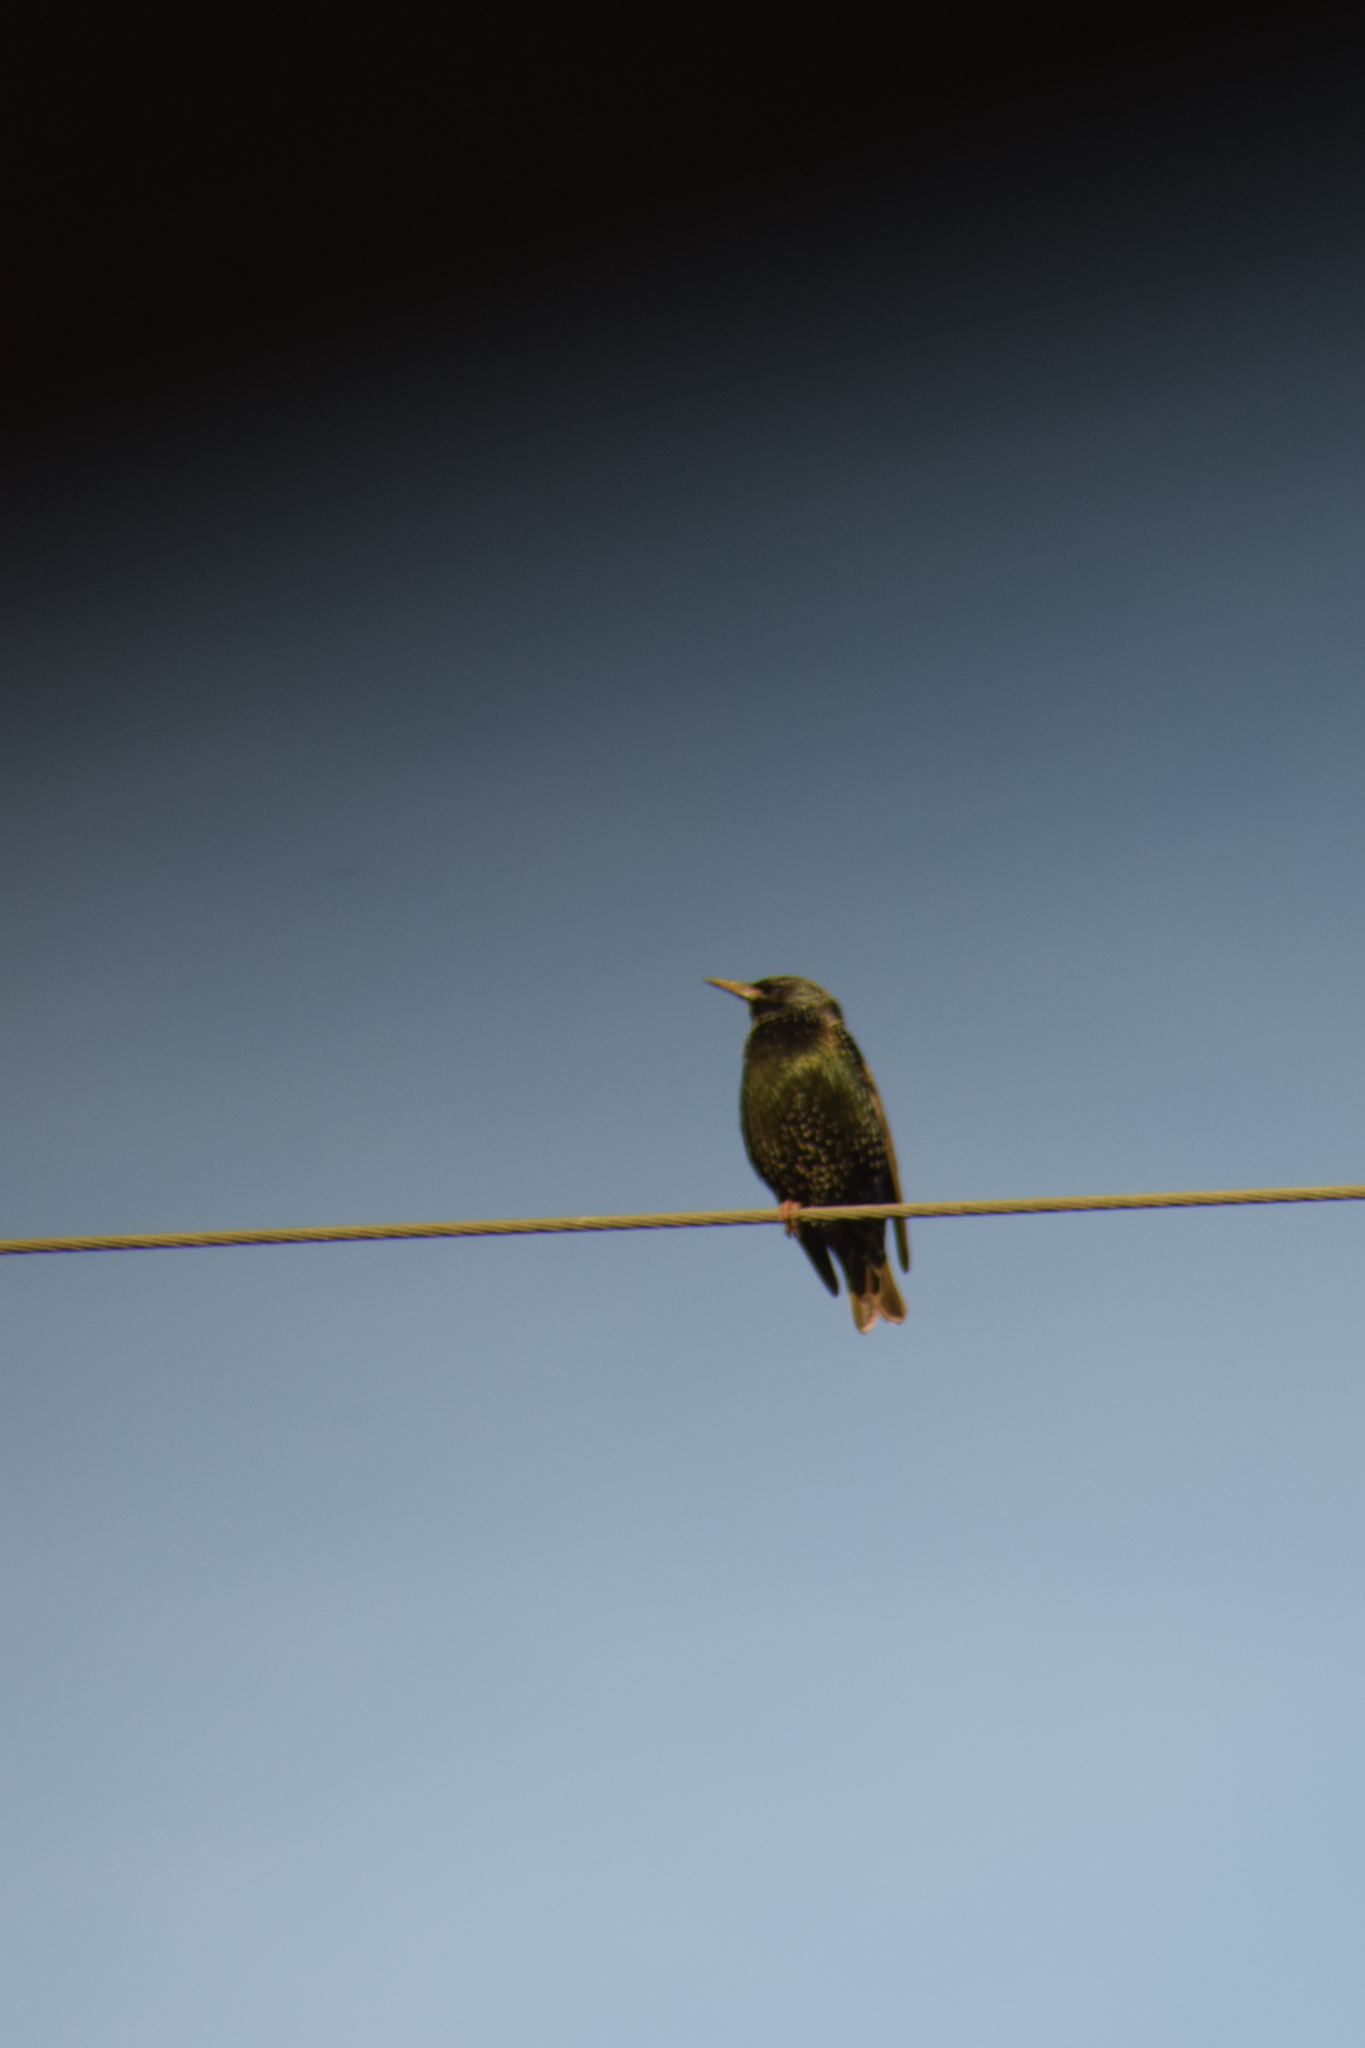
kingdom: Animalia
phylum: Chordata
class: Aves
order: Passeriformes
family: Sturnidae
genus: Sturnus
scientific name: Sturnus vulgaris
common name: Common starling
